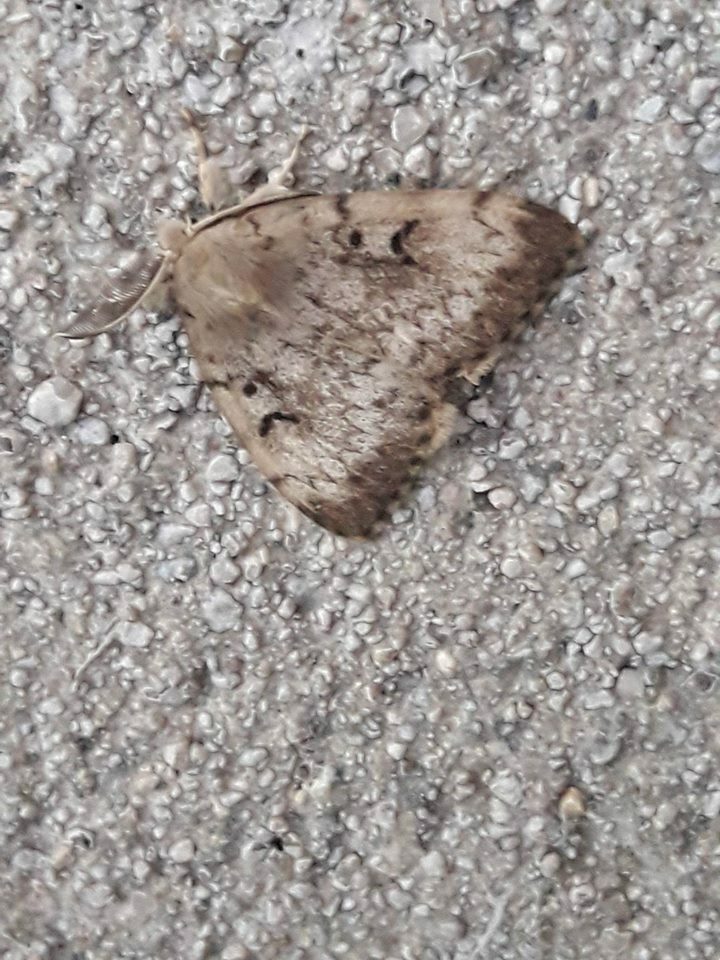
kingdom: Animalia
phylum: Arthropoda
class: Insecta
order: Lepidoptera
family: Erebidae
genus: Lymantria
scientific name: Lymantria dispar
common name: Gypsy moth
